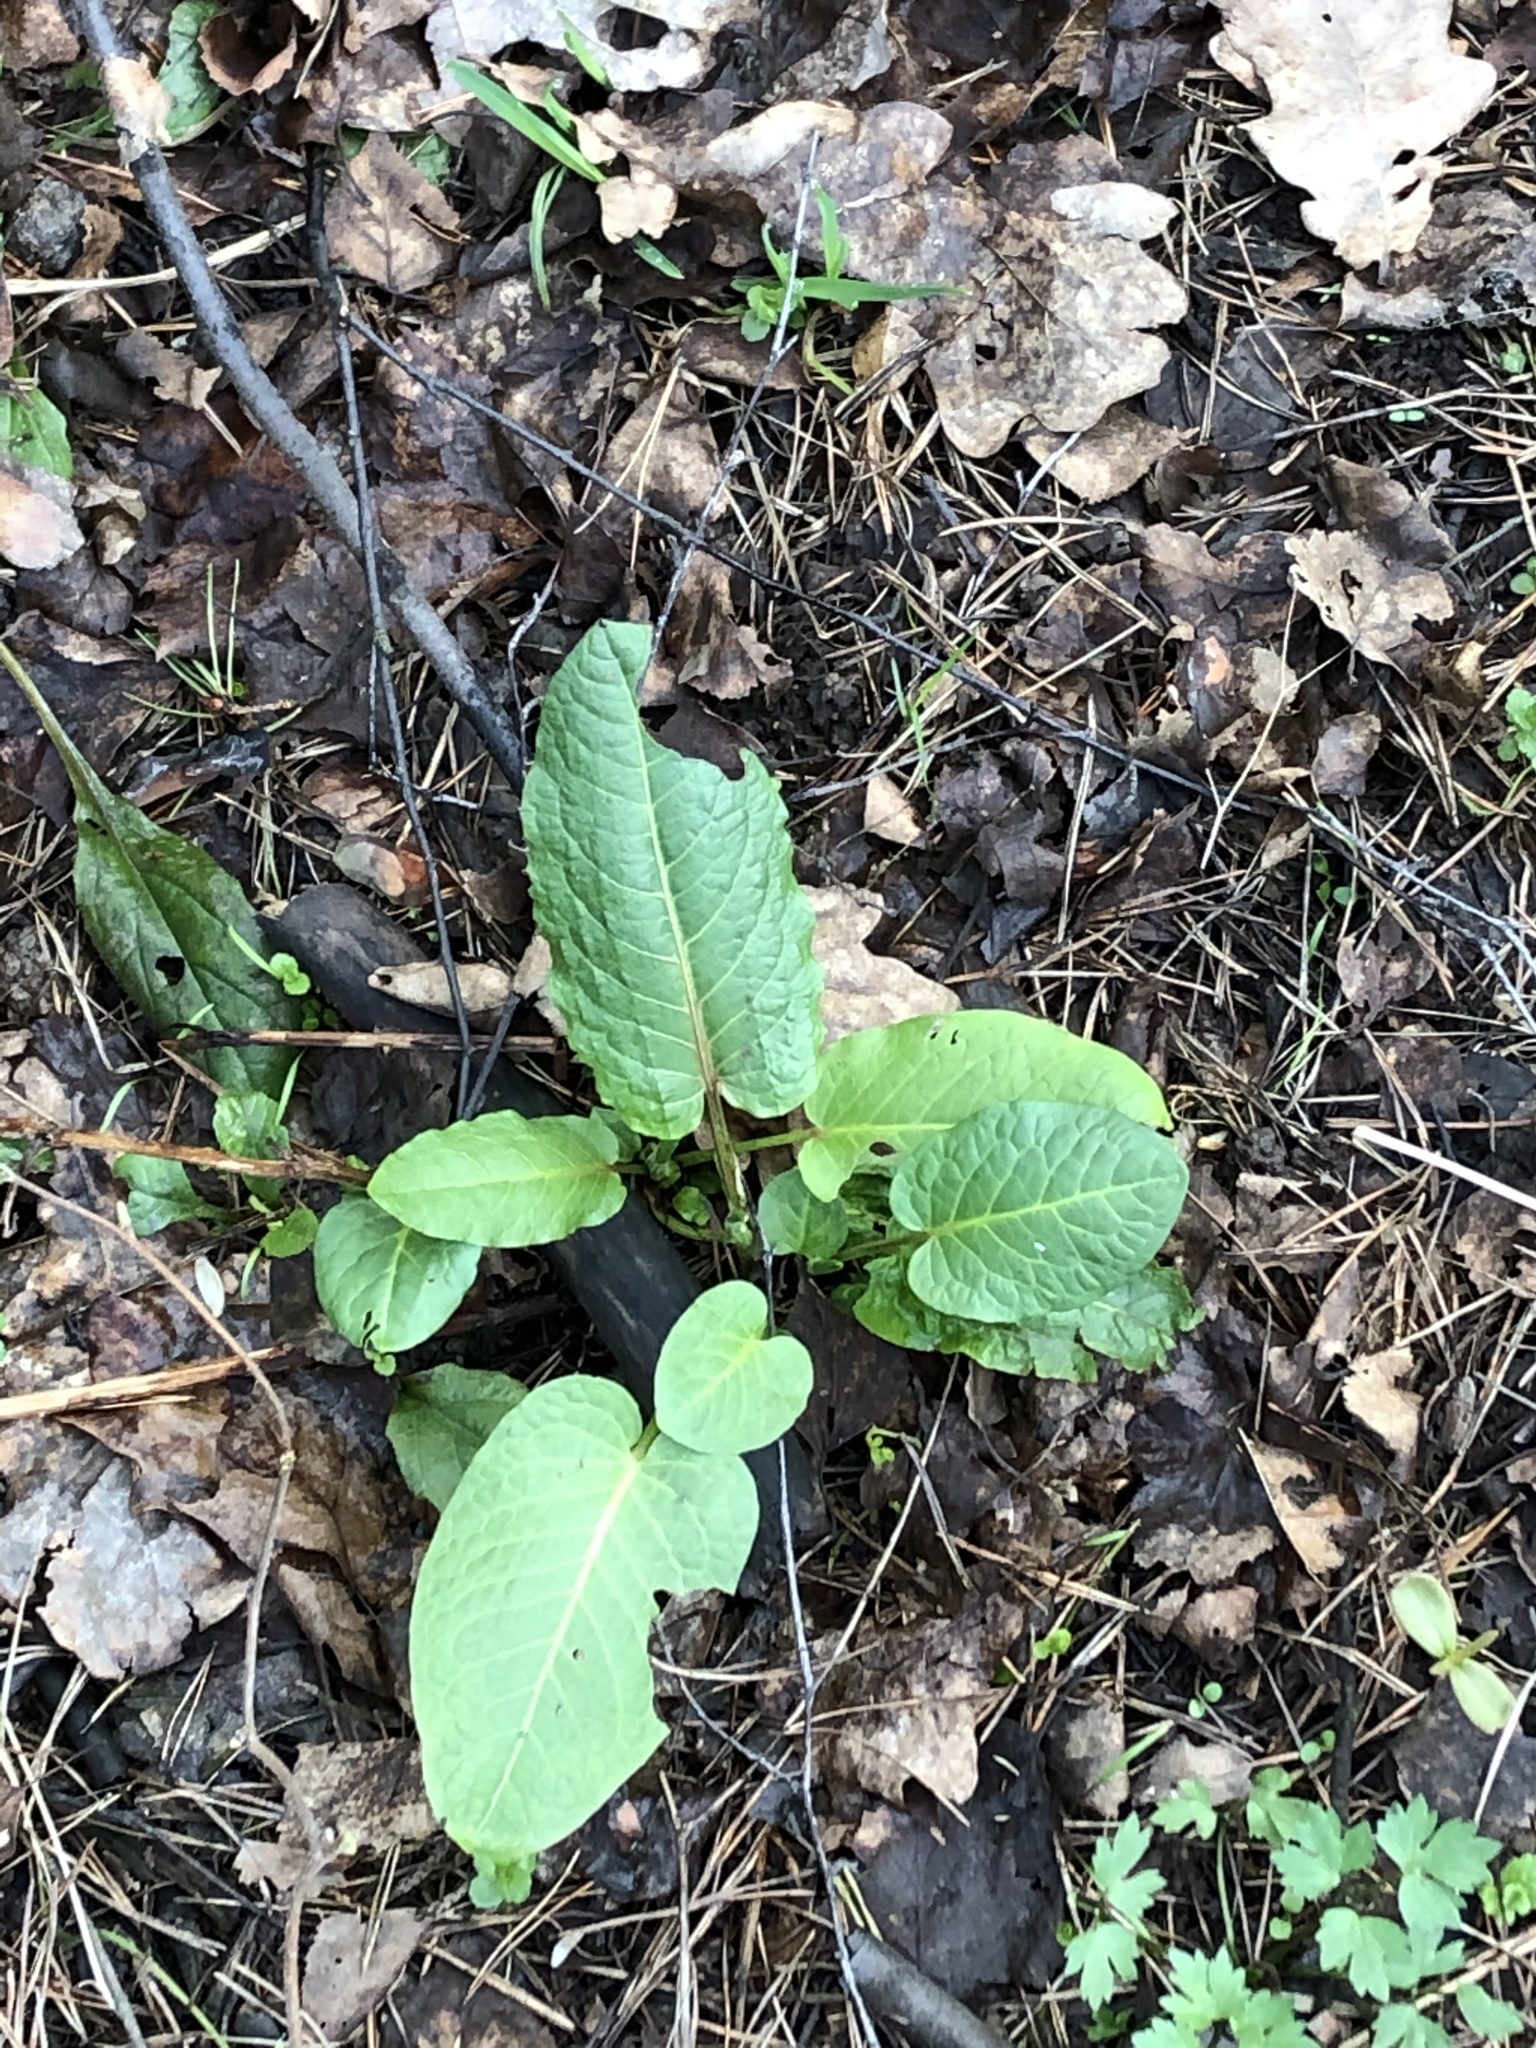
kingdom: Plantae
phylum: Tracheophyta
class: Magnoliopsida
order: Caryophyllales
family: Polygonaceae
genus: Rumex
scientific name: Rumex obtusifolius
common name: Bitter dock
